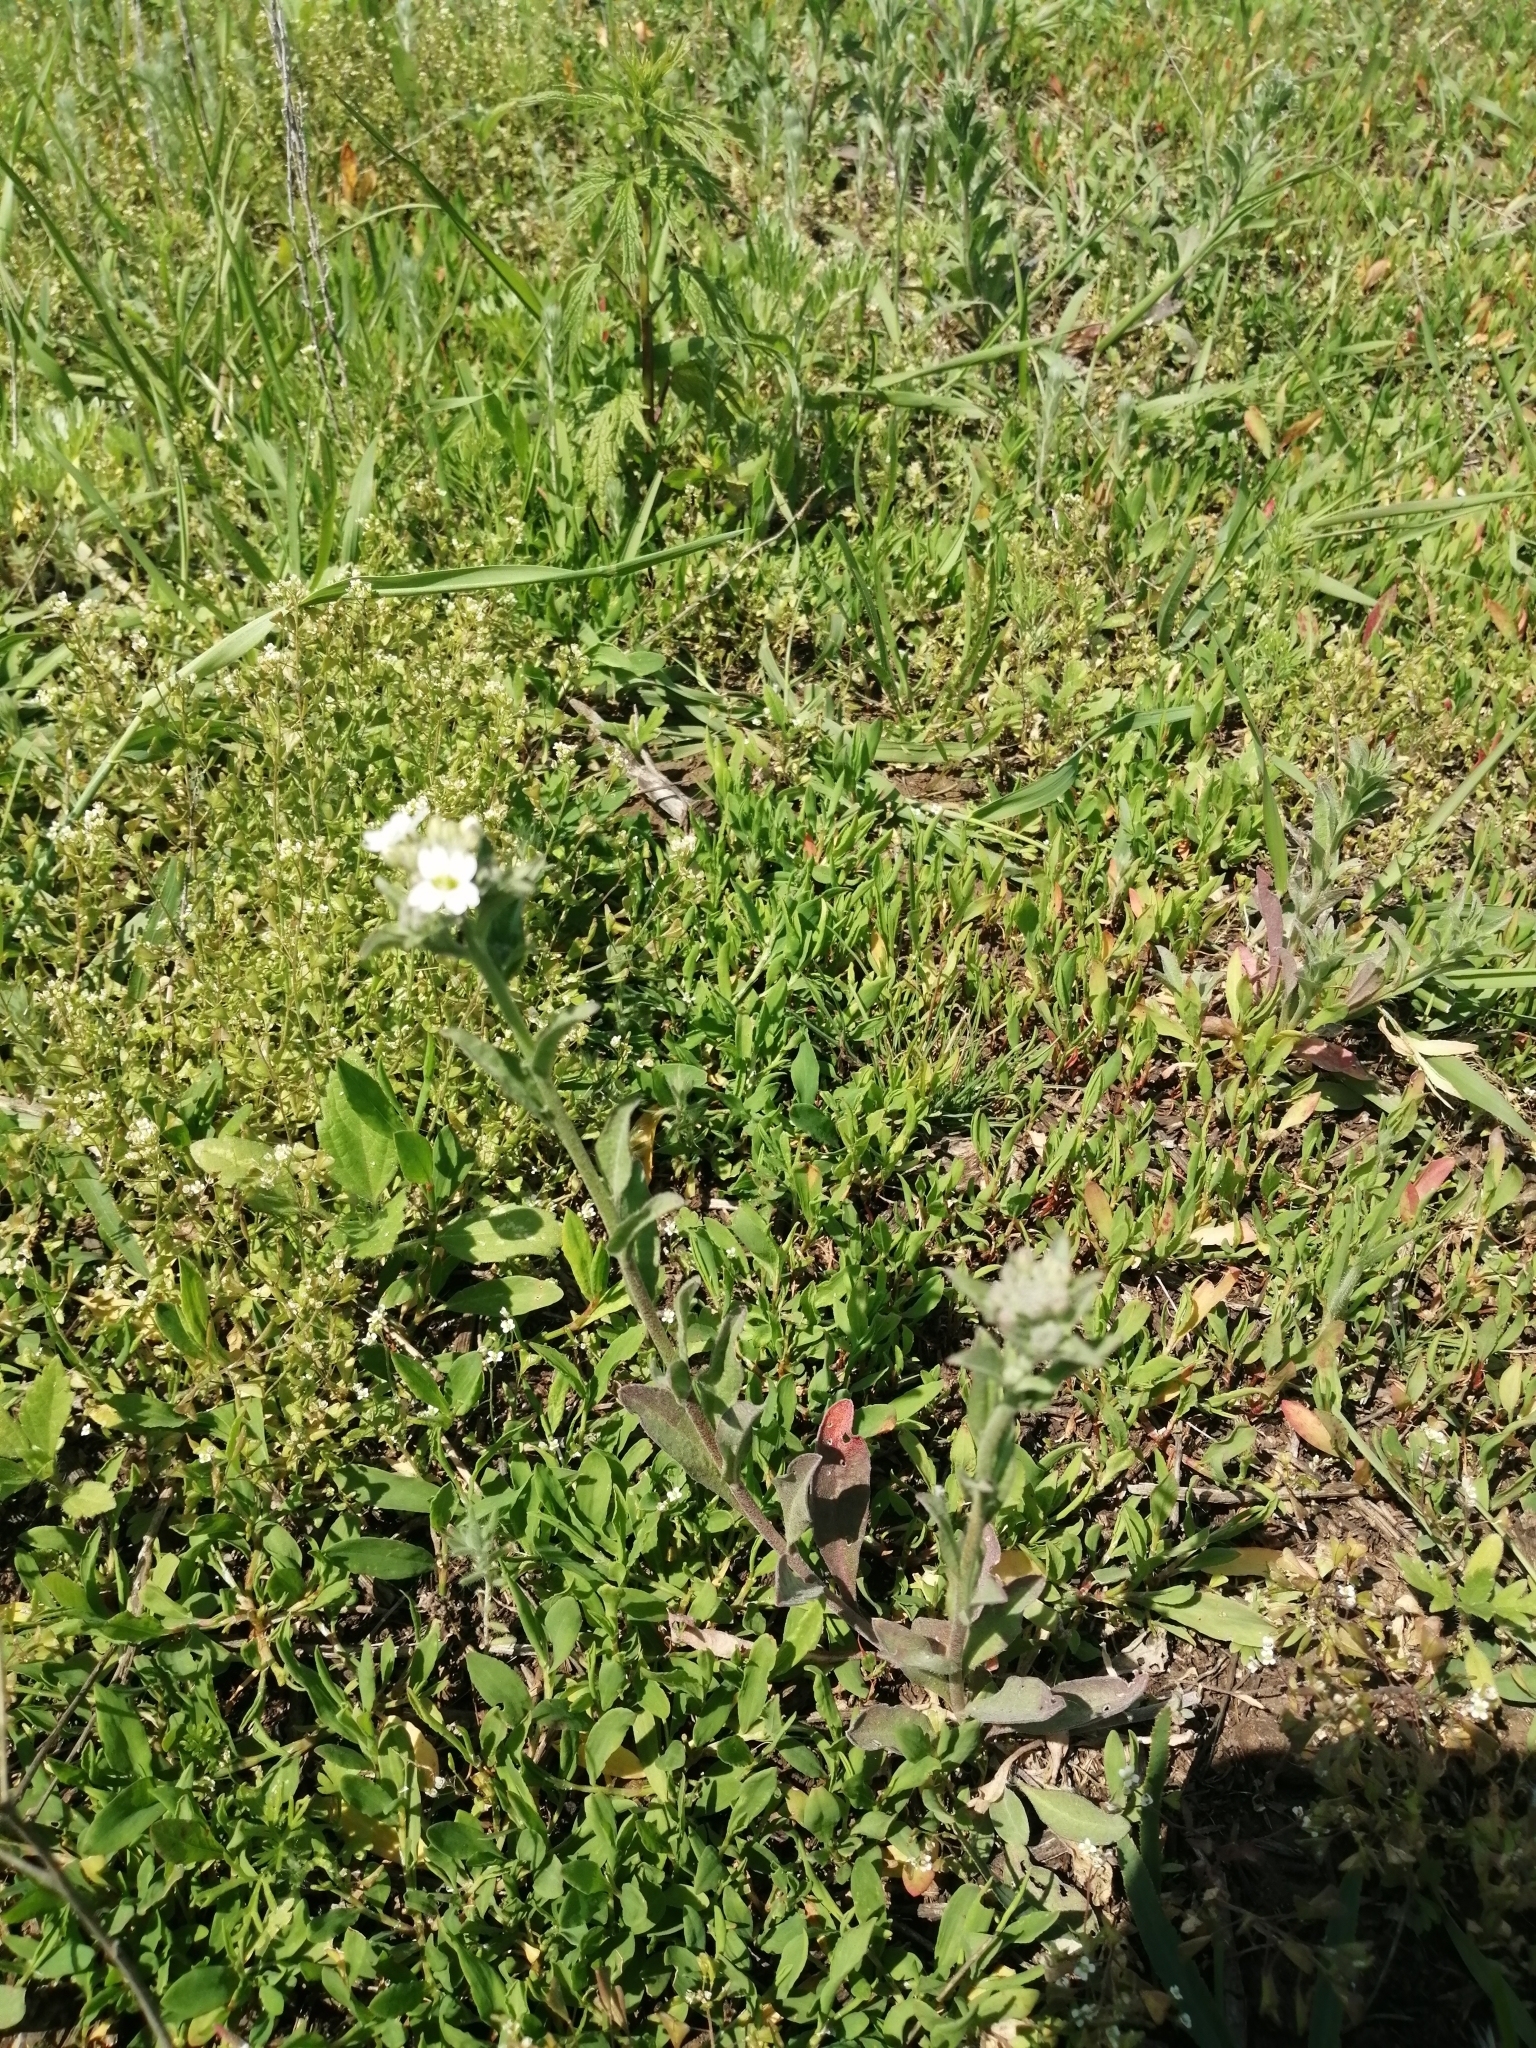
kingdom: Plantae
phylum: Tracheophyta
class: Magnoliopsida
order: Brassicales
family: Brassicaceae
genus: Berteroa
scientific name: Berteroa incana
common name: Hoary alison
